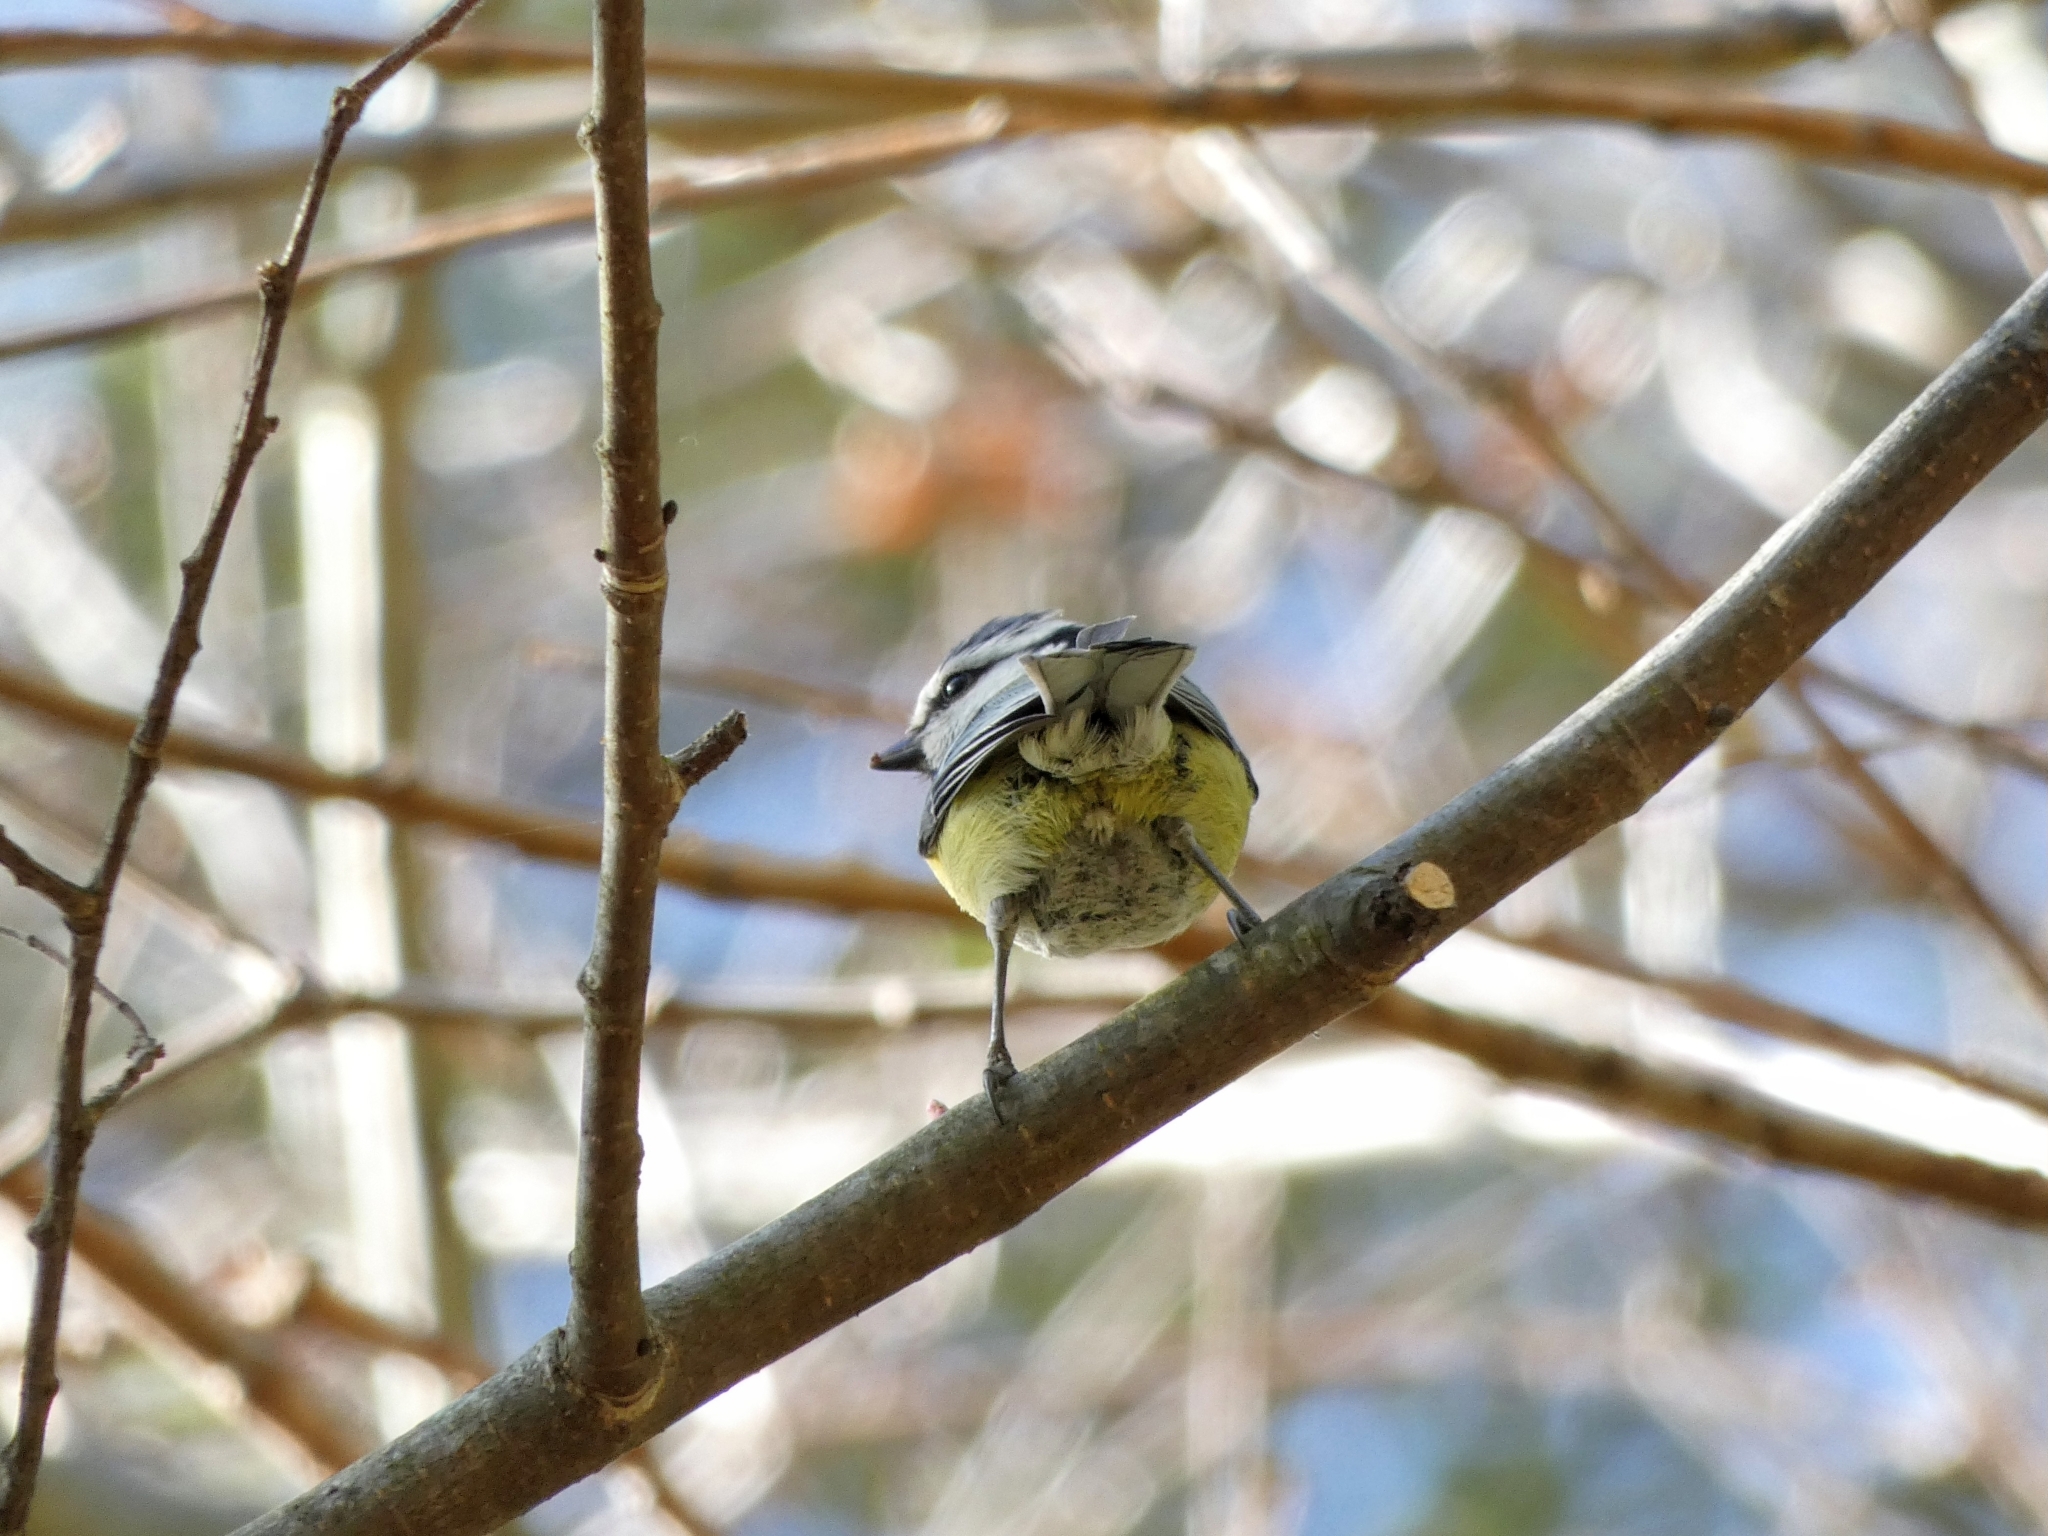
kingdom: Animalia
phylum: Chordata
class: Aves
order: Passeriformes
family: Paridae
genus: Cyanistes
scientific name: Cyanistes caeruleus
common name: Eurasian blue tit
